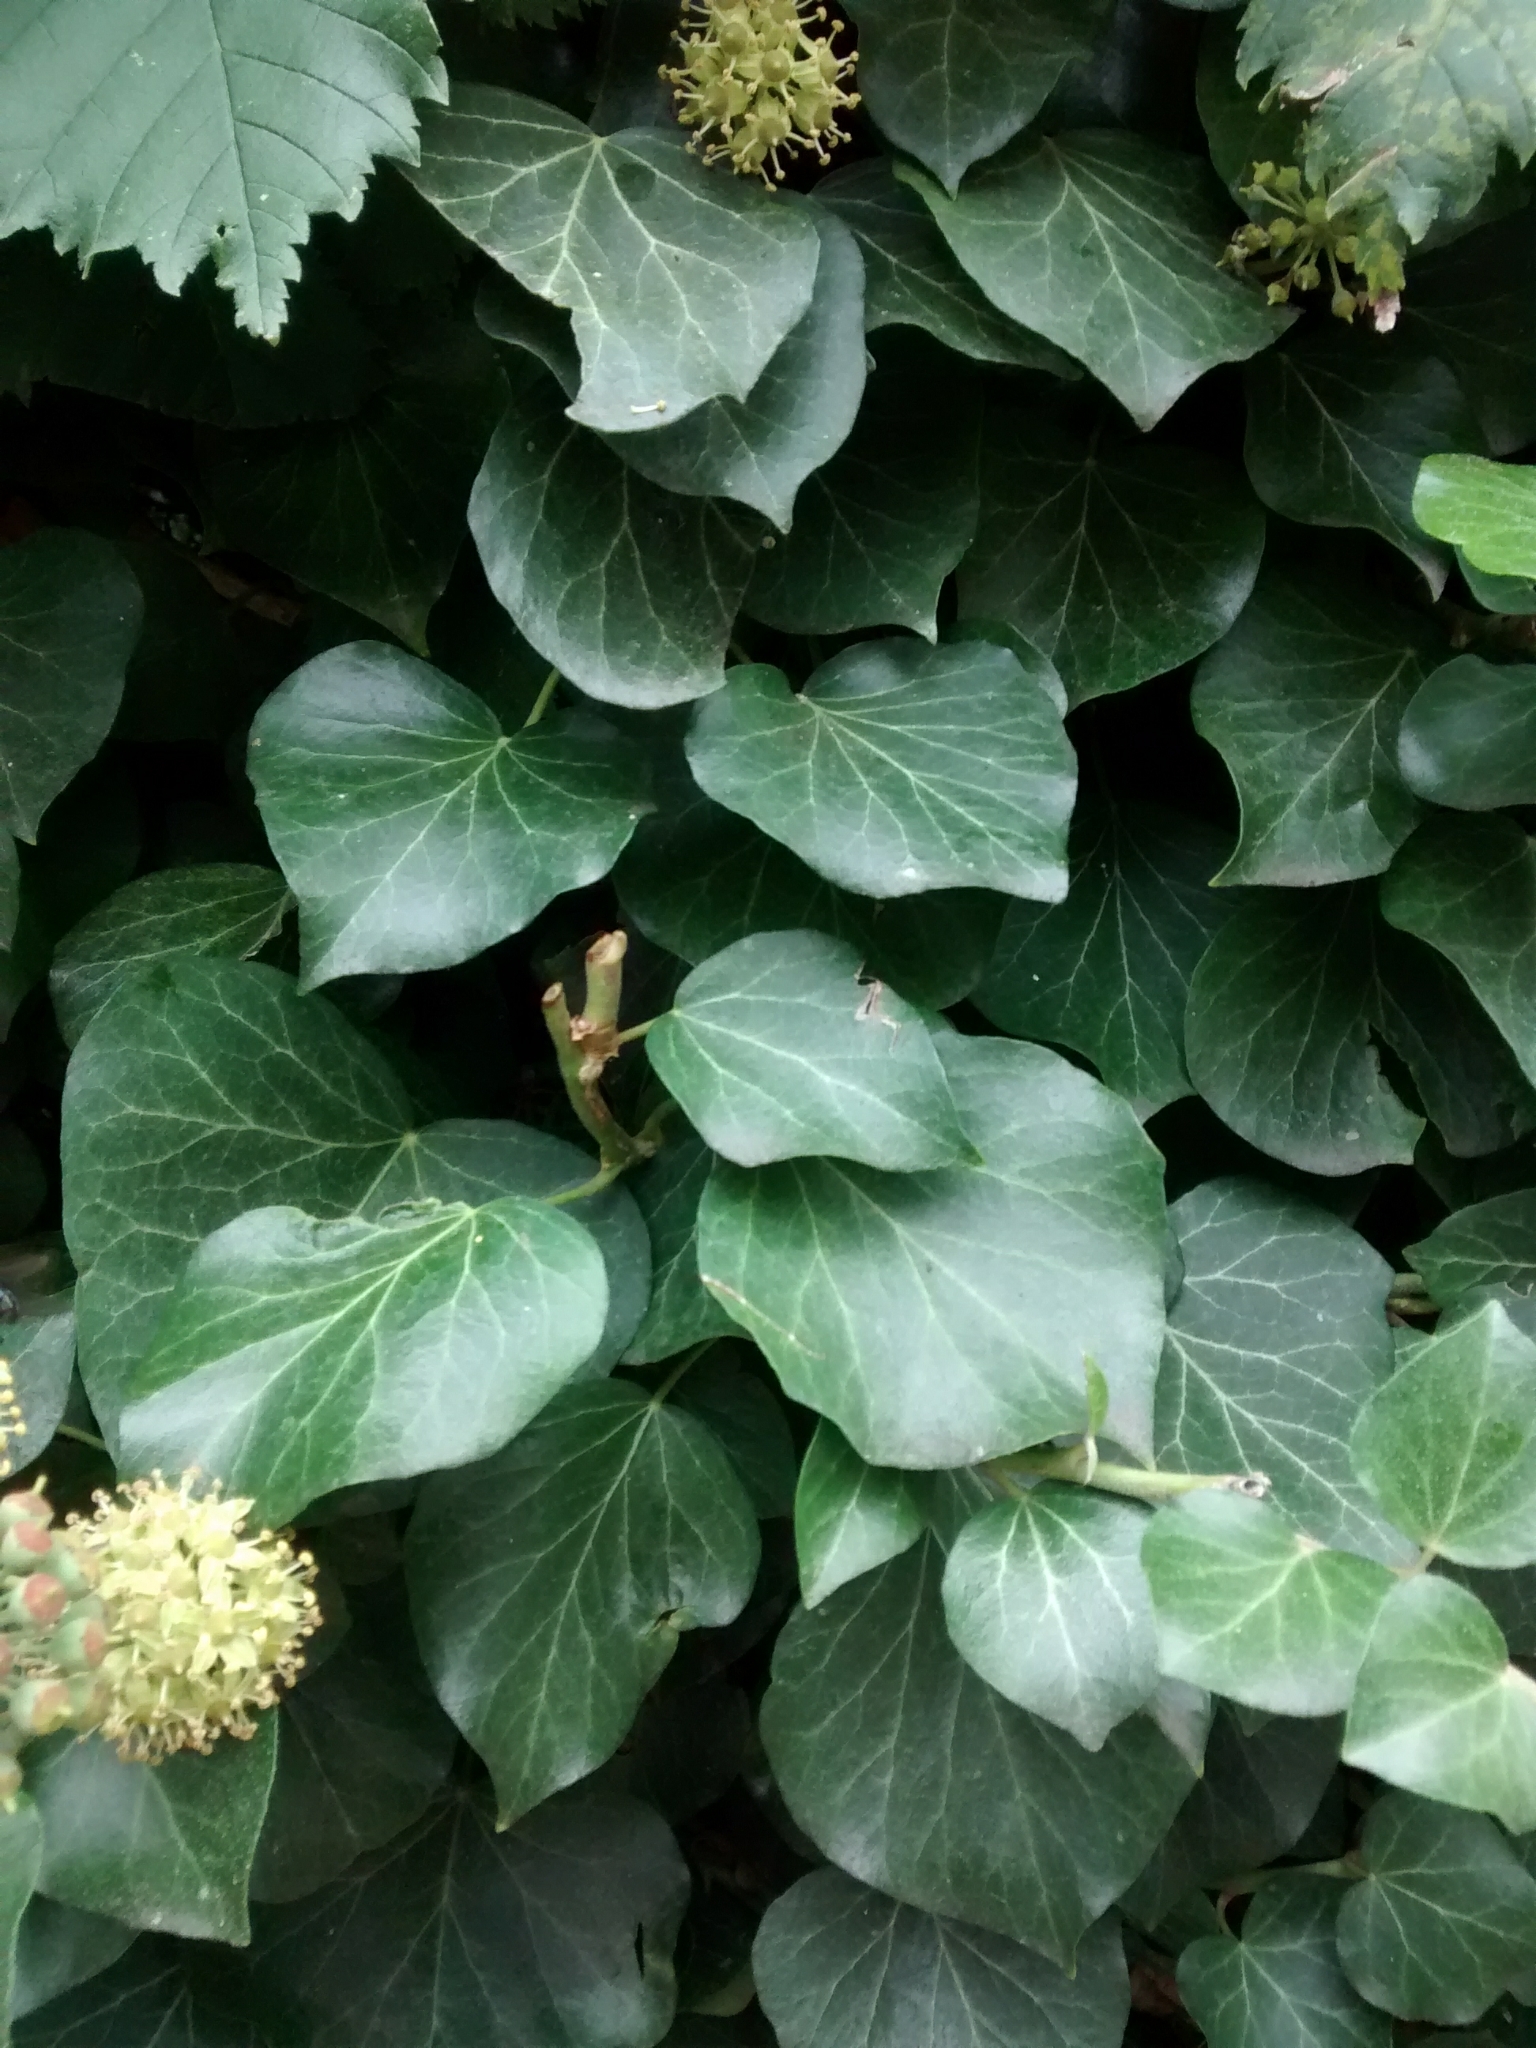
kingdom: Plantae
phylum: Tracheophyta
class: Magnoliopsida
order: Apiales
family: Araliaceae
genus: Hedera
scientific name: Hedera helix
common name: Ivy
